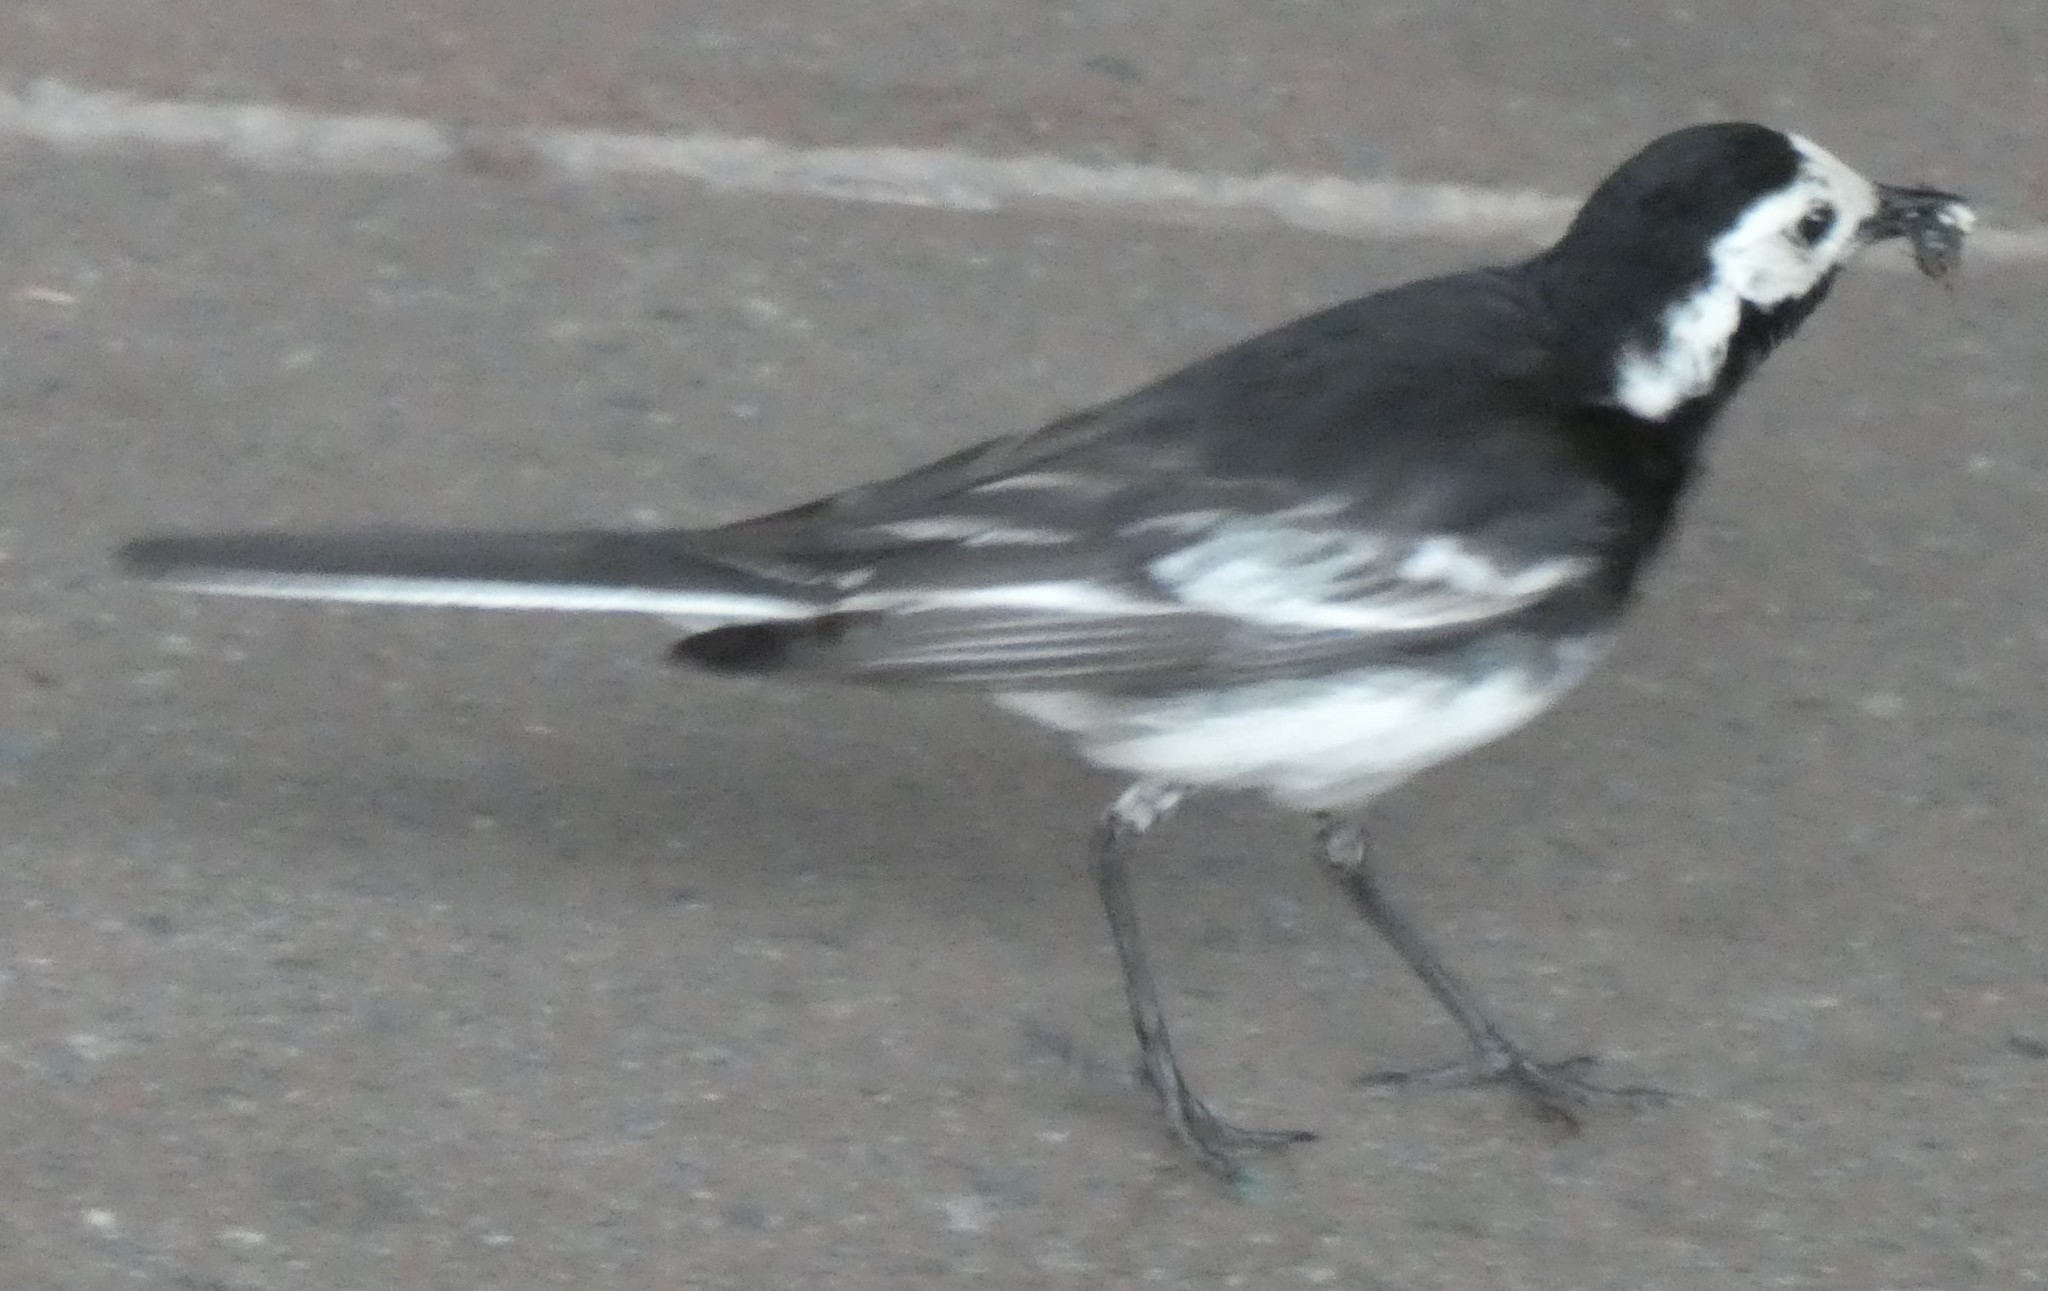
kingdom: Animalia
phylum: Chordata
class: Aves
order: Passeriformes
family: Motacillidae
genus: Motacilla
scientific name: Motacilla alba
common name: White wagtail
